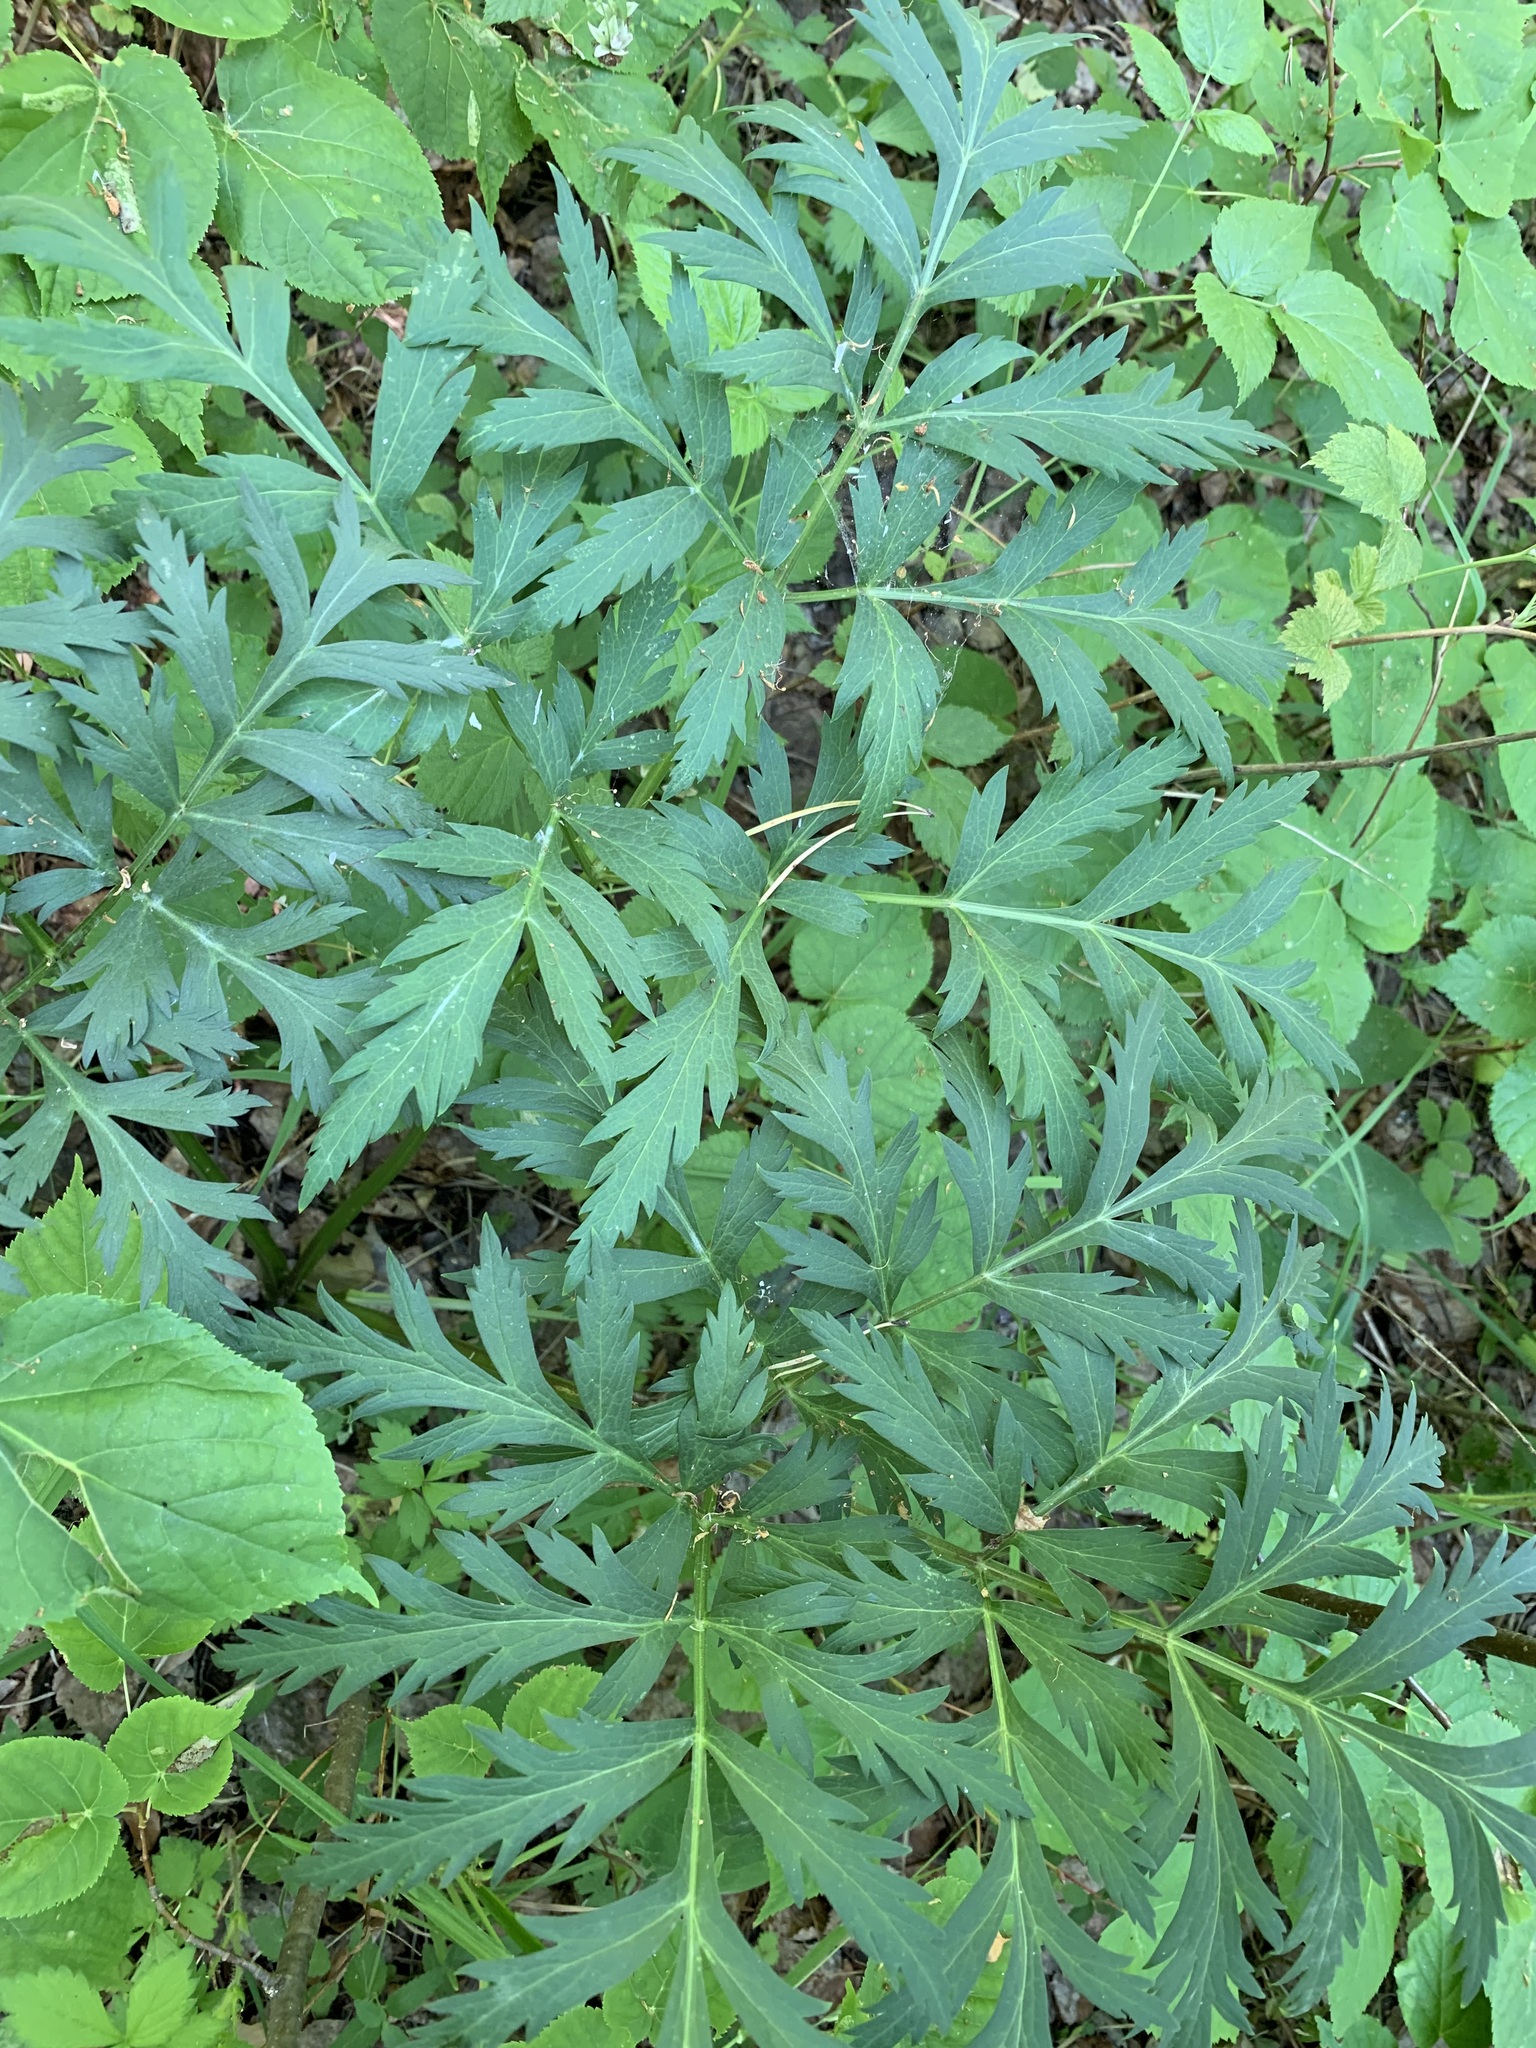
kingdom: Plantae
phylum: Tracheophyta
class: Magnoliopsida
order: Apiales
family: Apiaceae
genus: Pleurospermum
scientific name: Pleurospermum uralense
